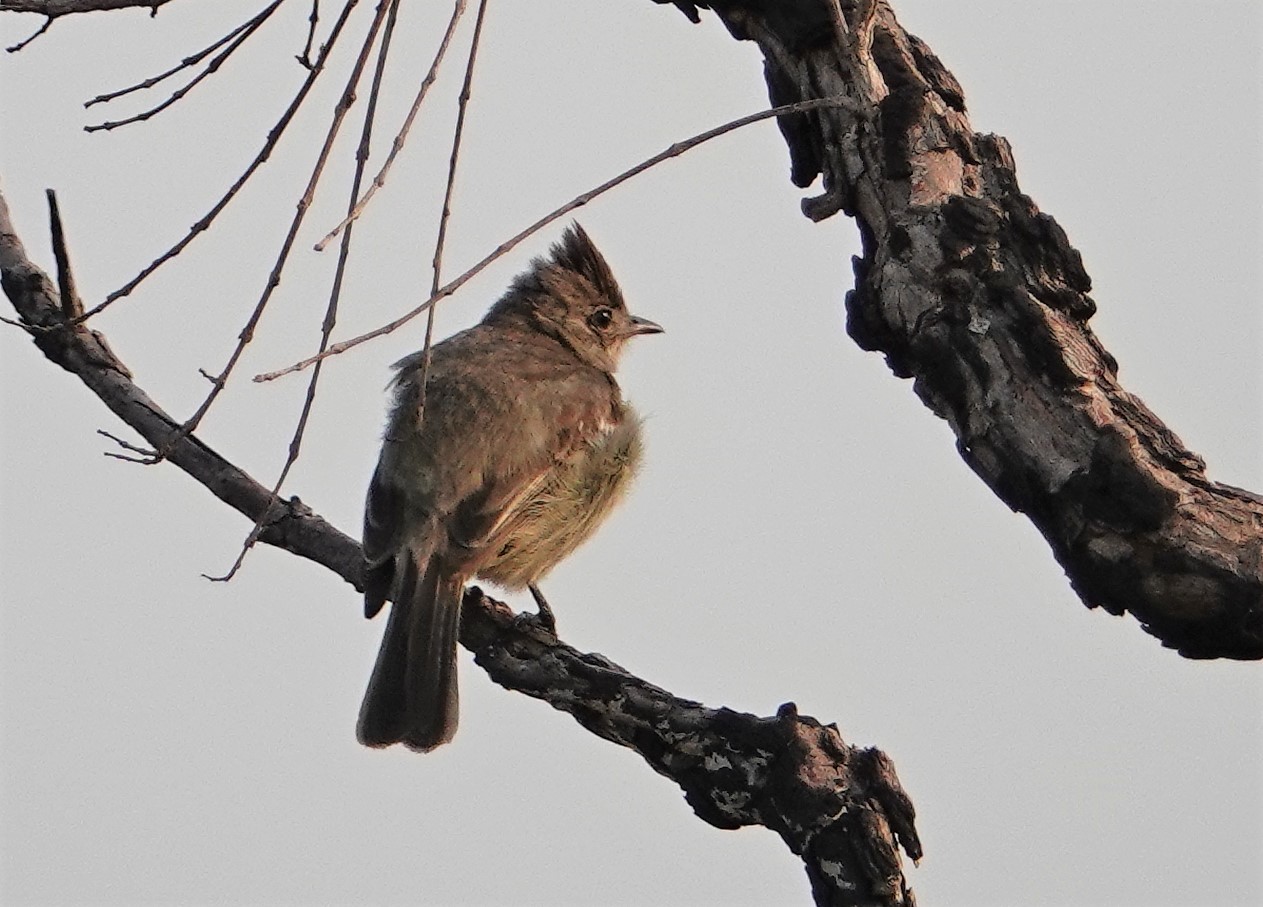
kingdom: Animalia
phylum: Chordata
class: Aves
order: Passeriformes
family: Tyrannidae
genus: Elaenia
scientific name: Elaenia cristata
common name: Plain-crested elaenia
